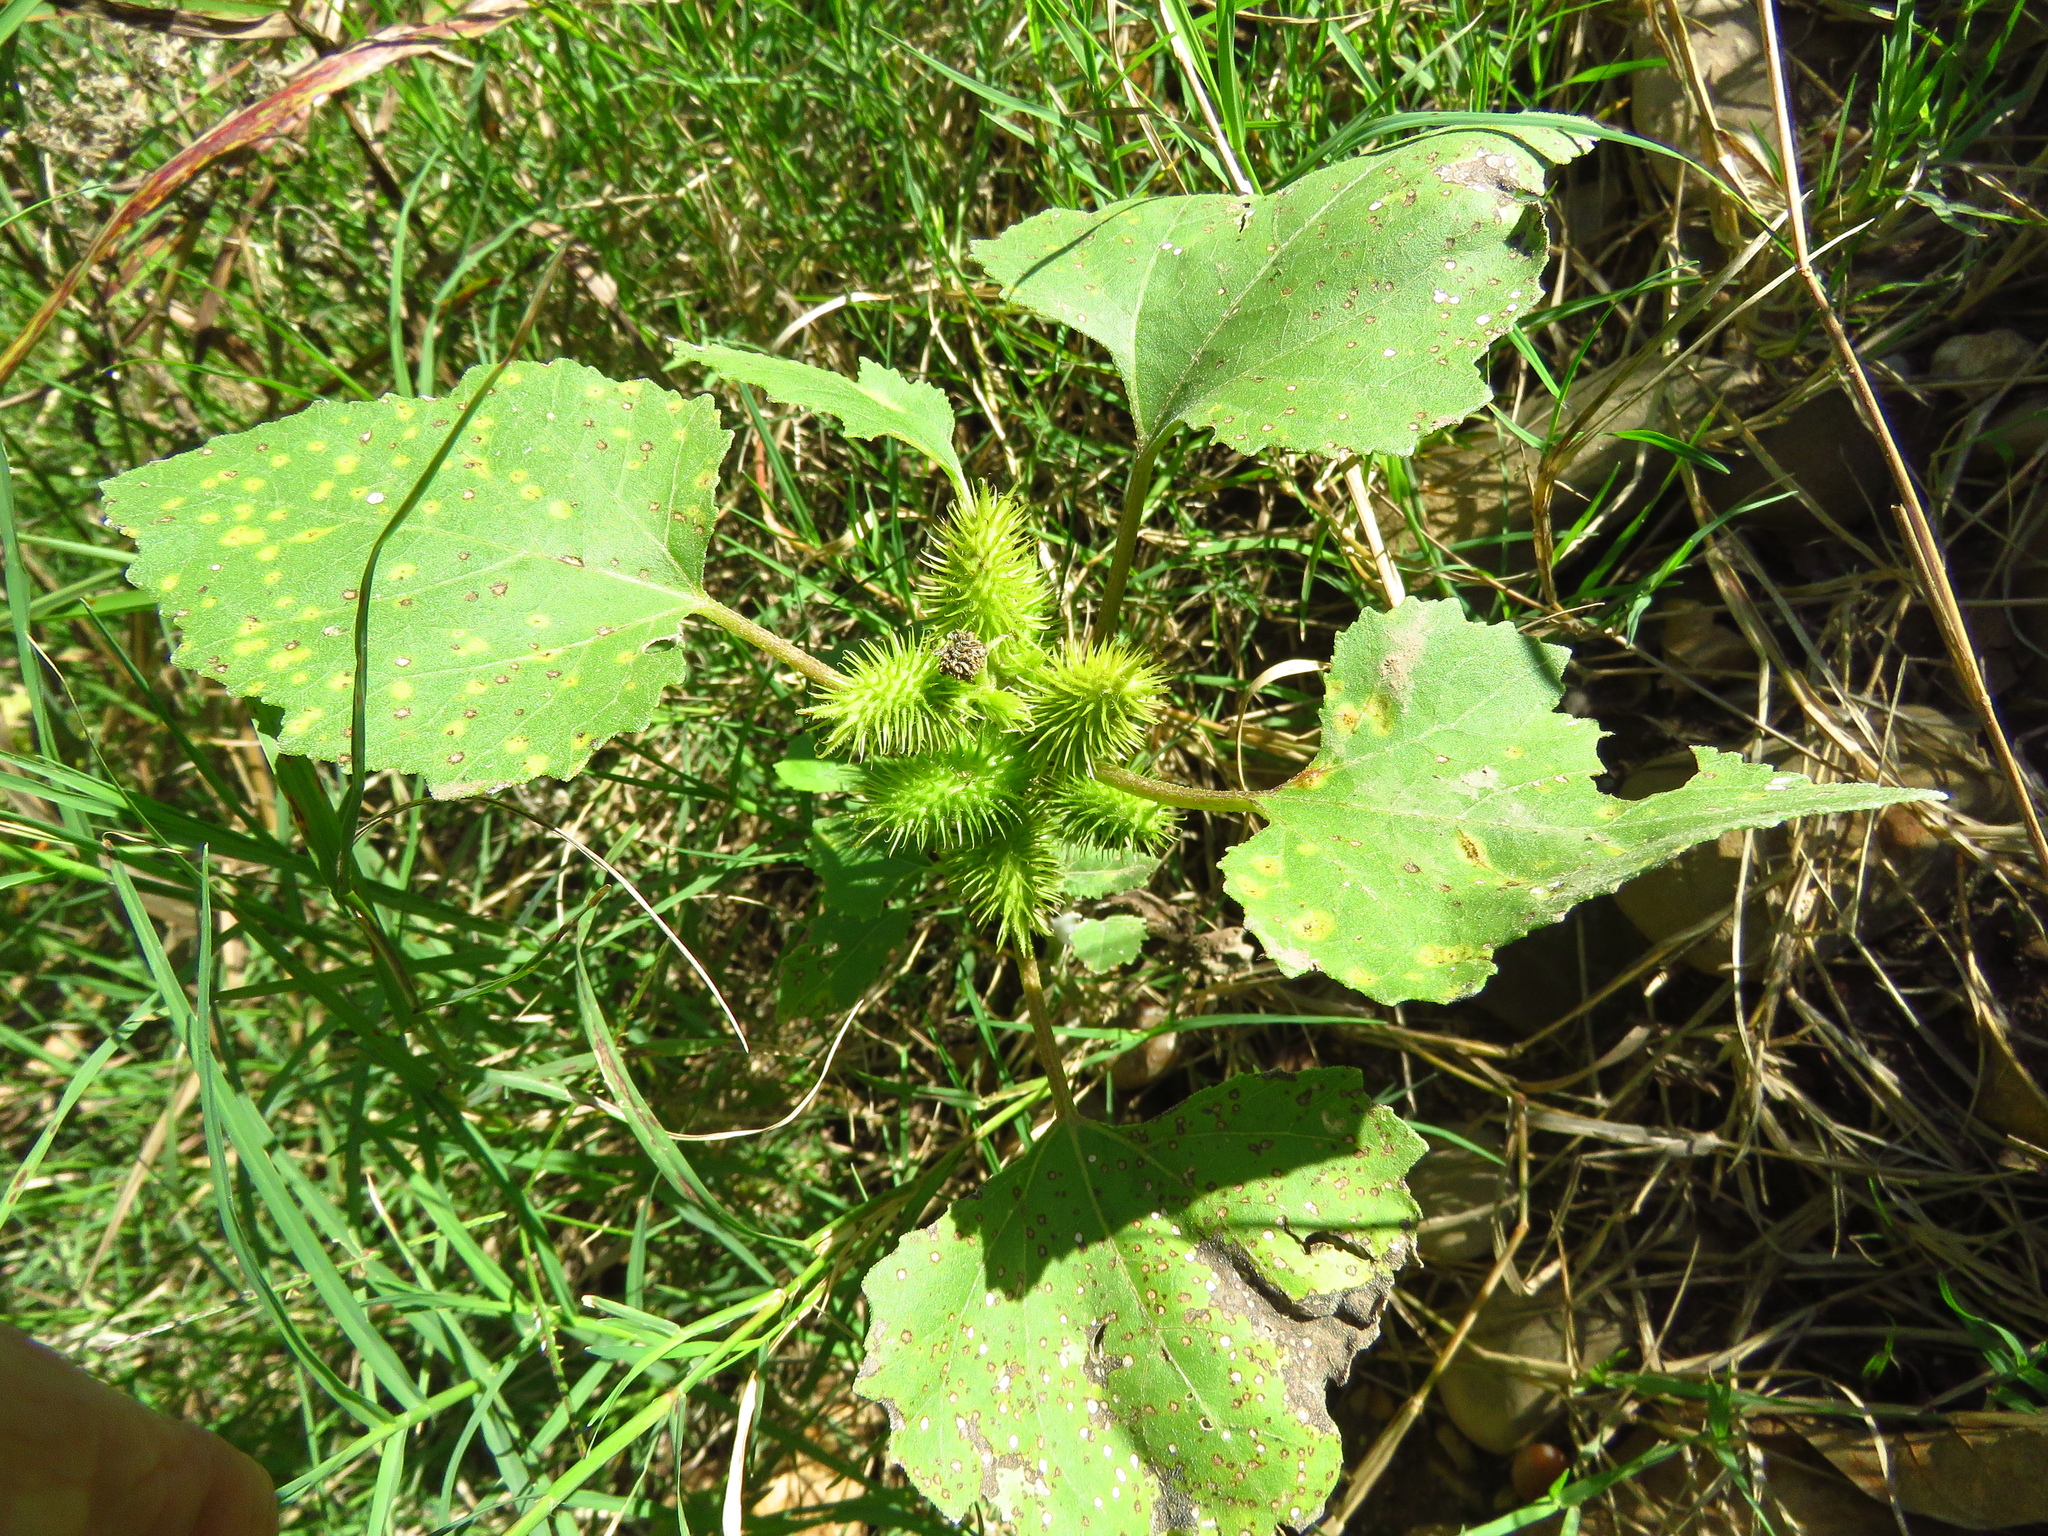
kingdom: Plantae
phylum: Tracheophyta
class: Magnoliopsida
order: Asterales
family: Asteraceae
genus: Xanthium
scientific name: Xanthium strumarium
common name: Rough cocklebur
